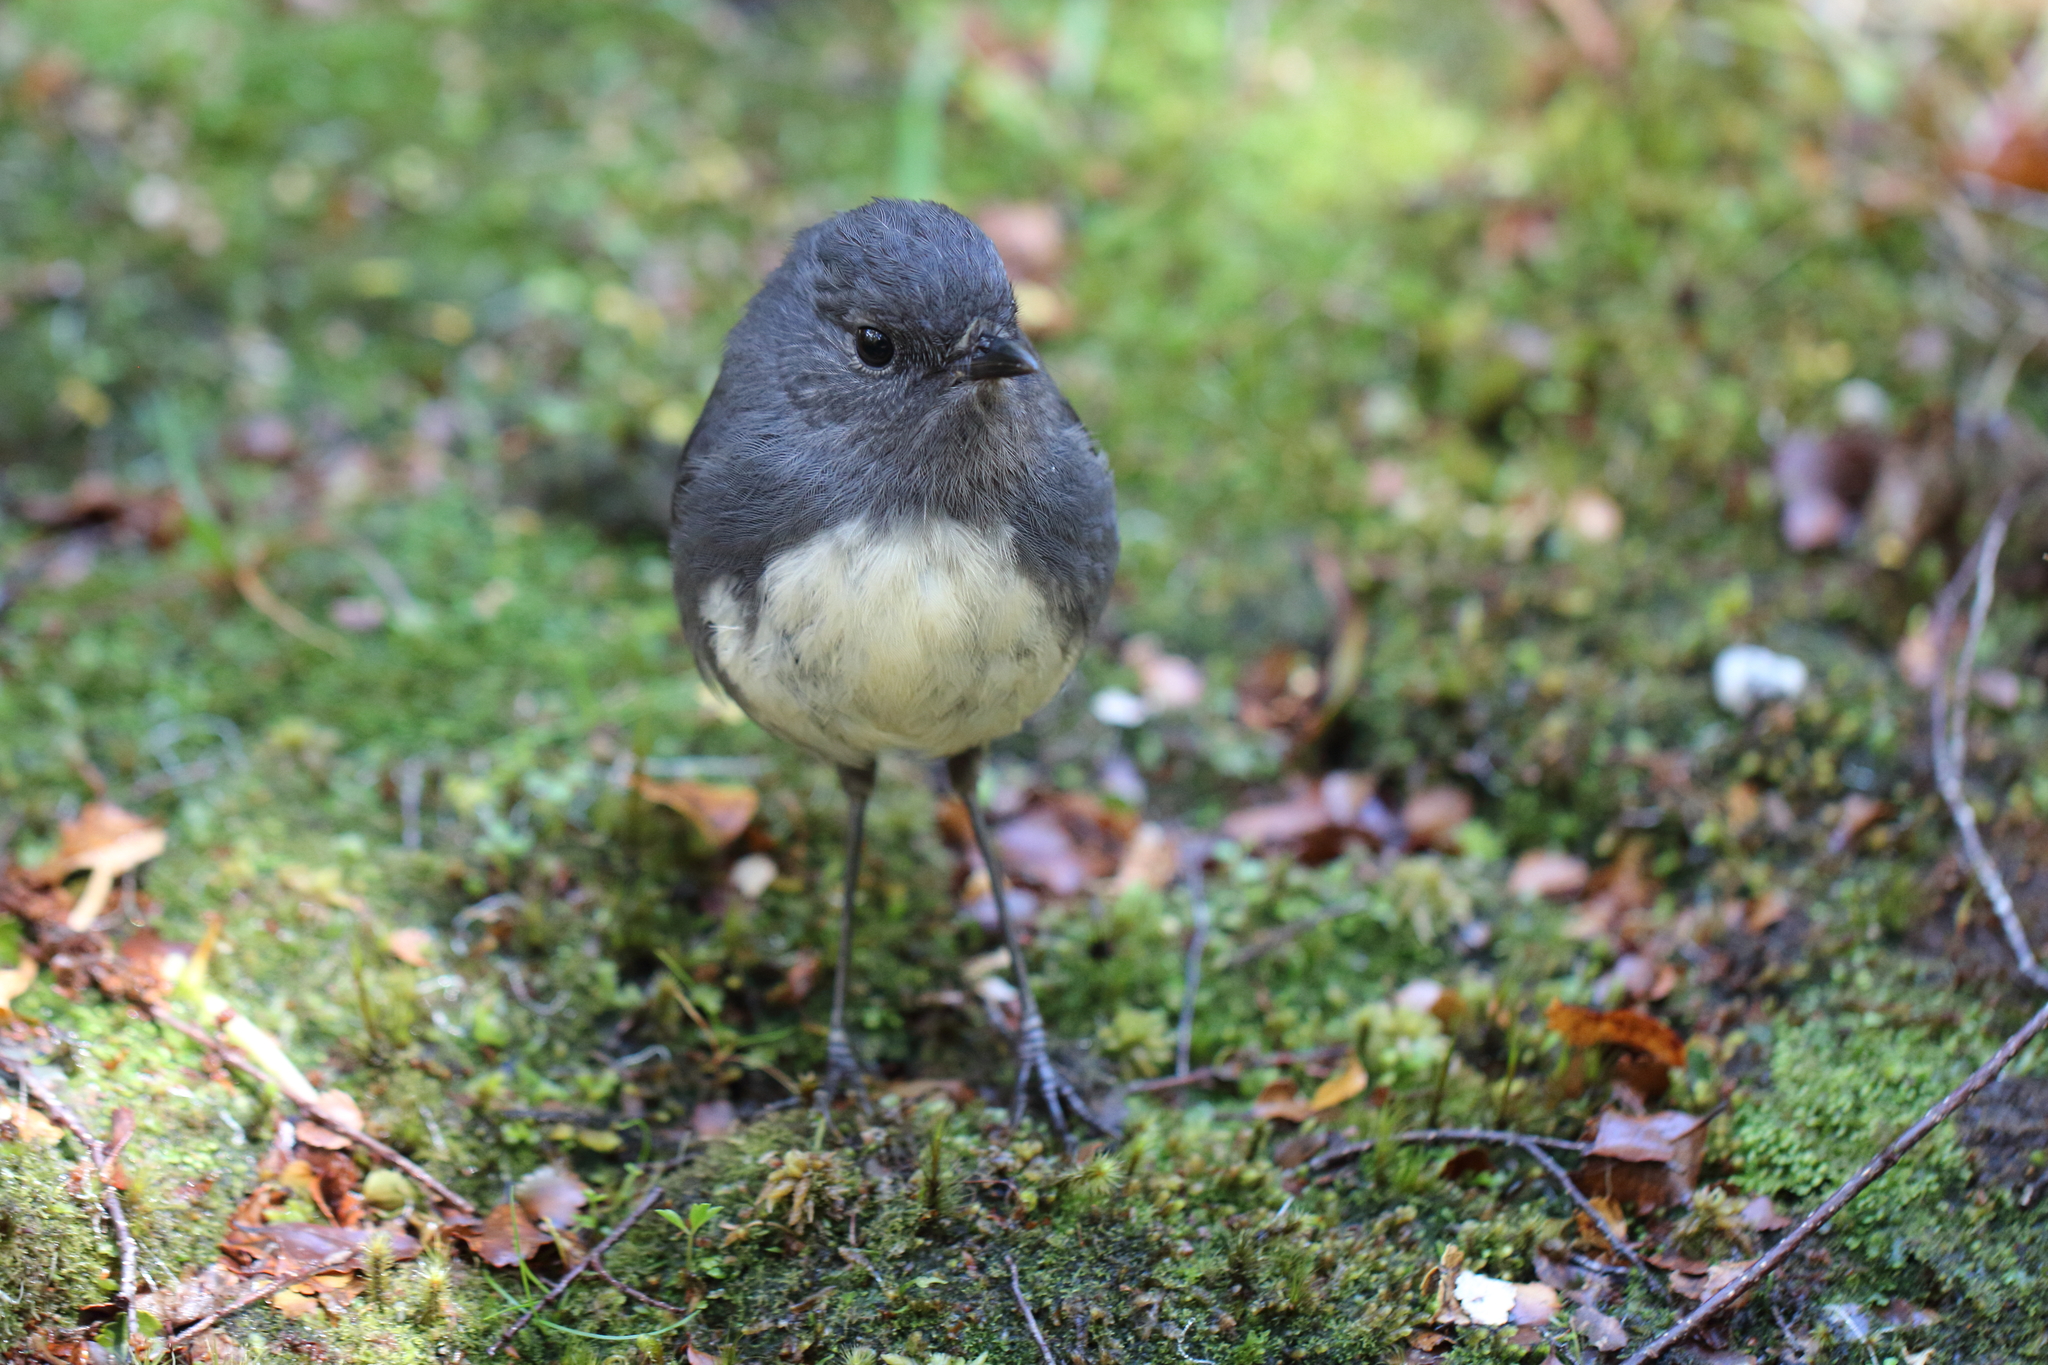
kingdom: Animalia
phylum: Chordata
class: Aves
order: Passeriformes
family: Petroicidae
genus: Petroica
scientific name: Petroica australis
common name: New zealand robin
